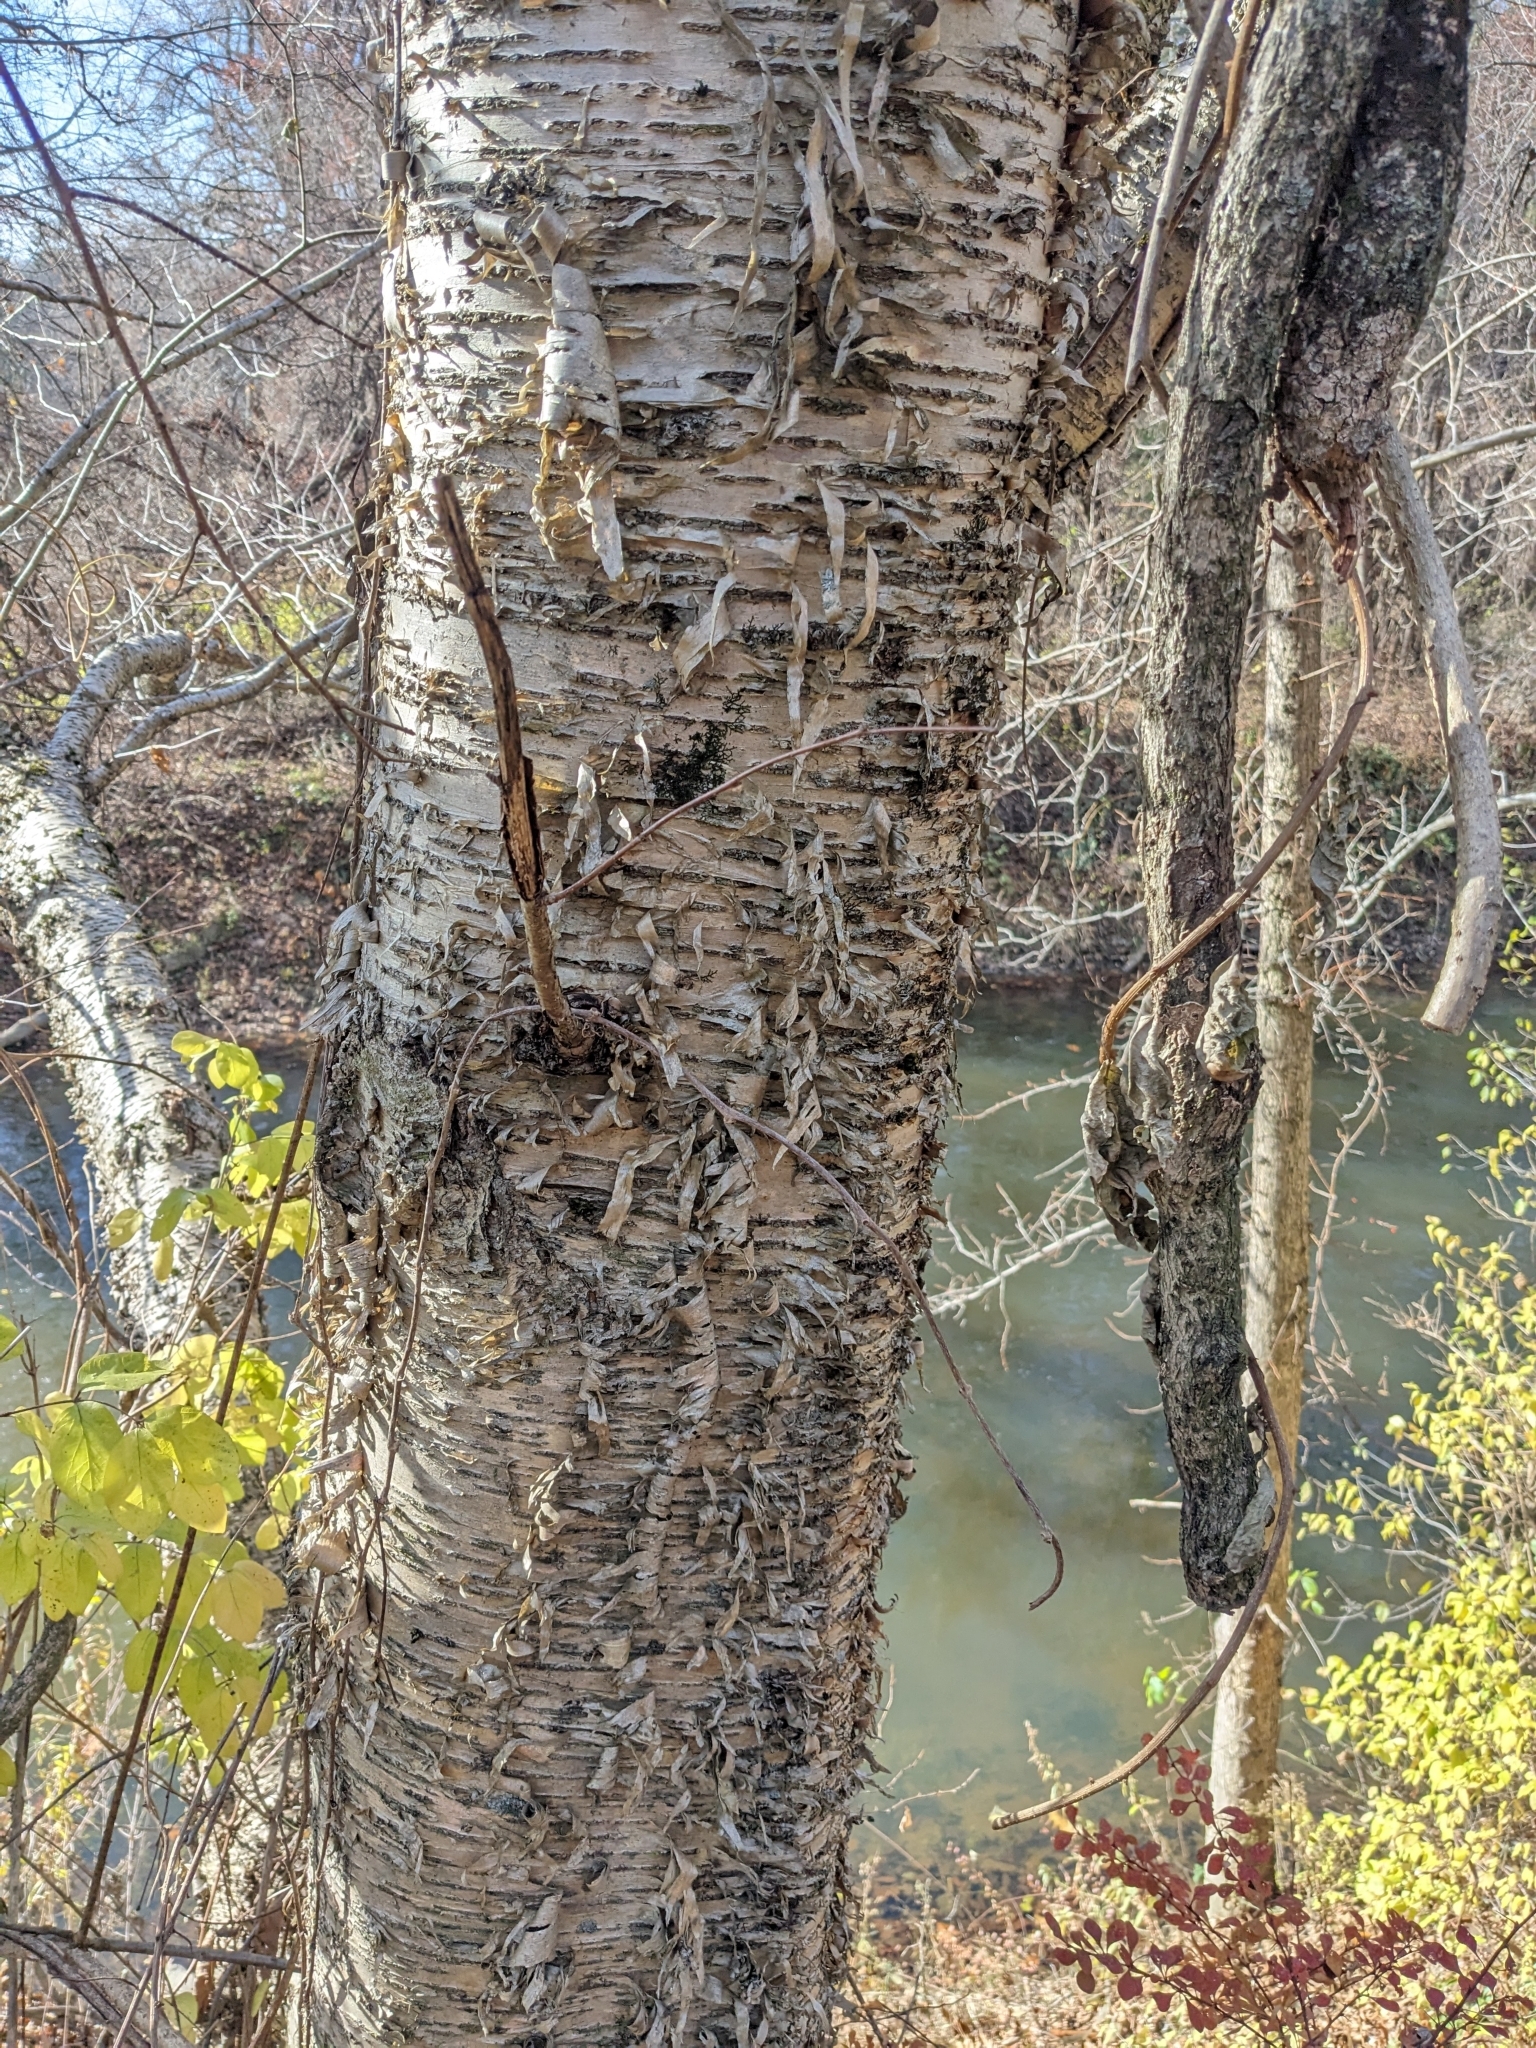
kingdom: Plantae
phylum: Tracheophyta
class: Magnoliopsida
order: Fagales
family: Betulaceae
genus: Betula
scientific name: Betula alleghaniensis
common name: Yellow birch
